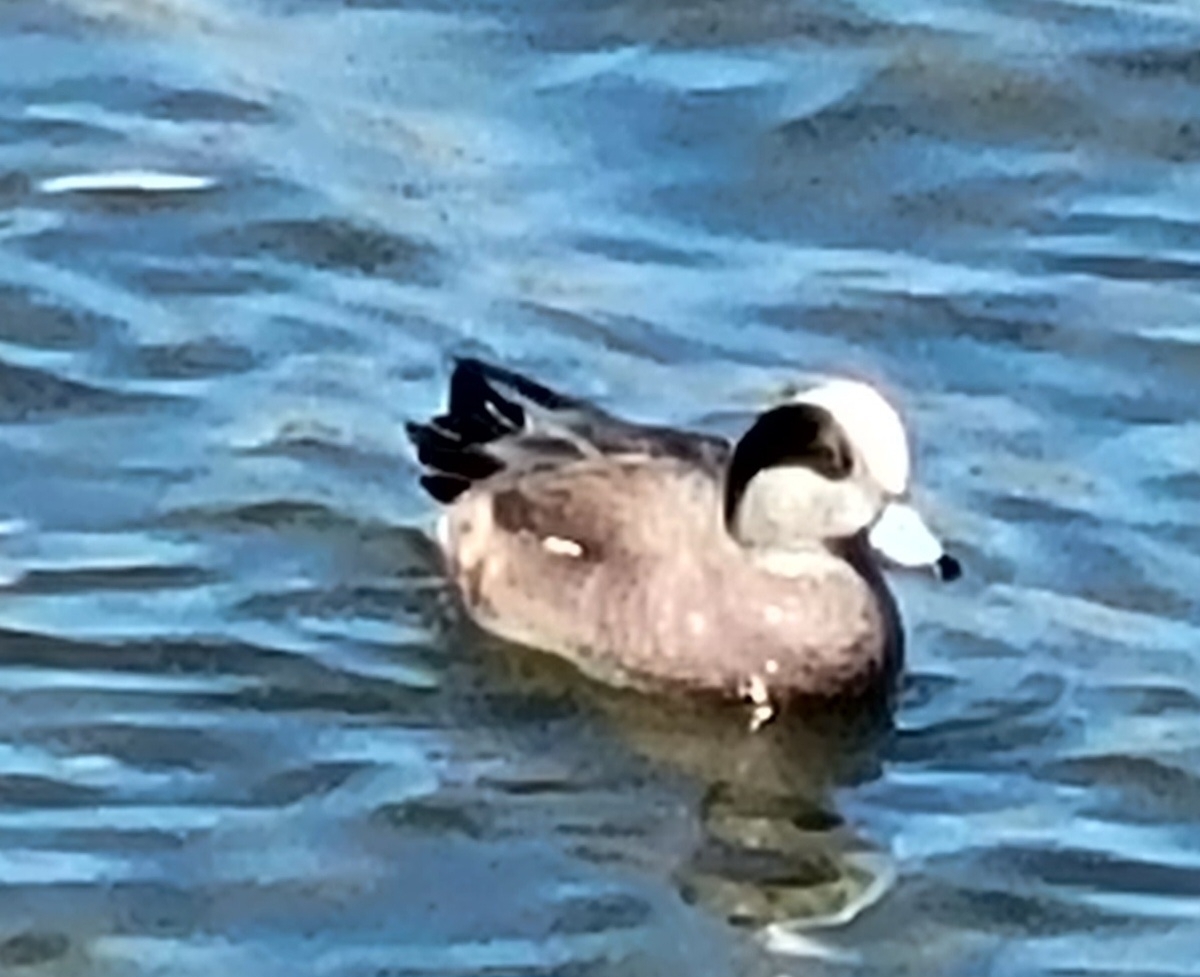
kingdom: Animalia
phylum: Chordata
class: Aves
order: Anseriformes
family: Anatidae
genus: Mareca
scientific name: Mareca americana
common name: American wigeon
